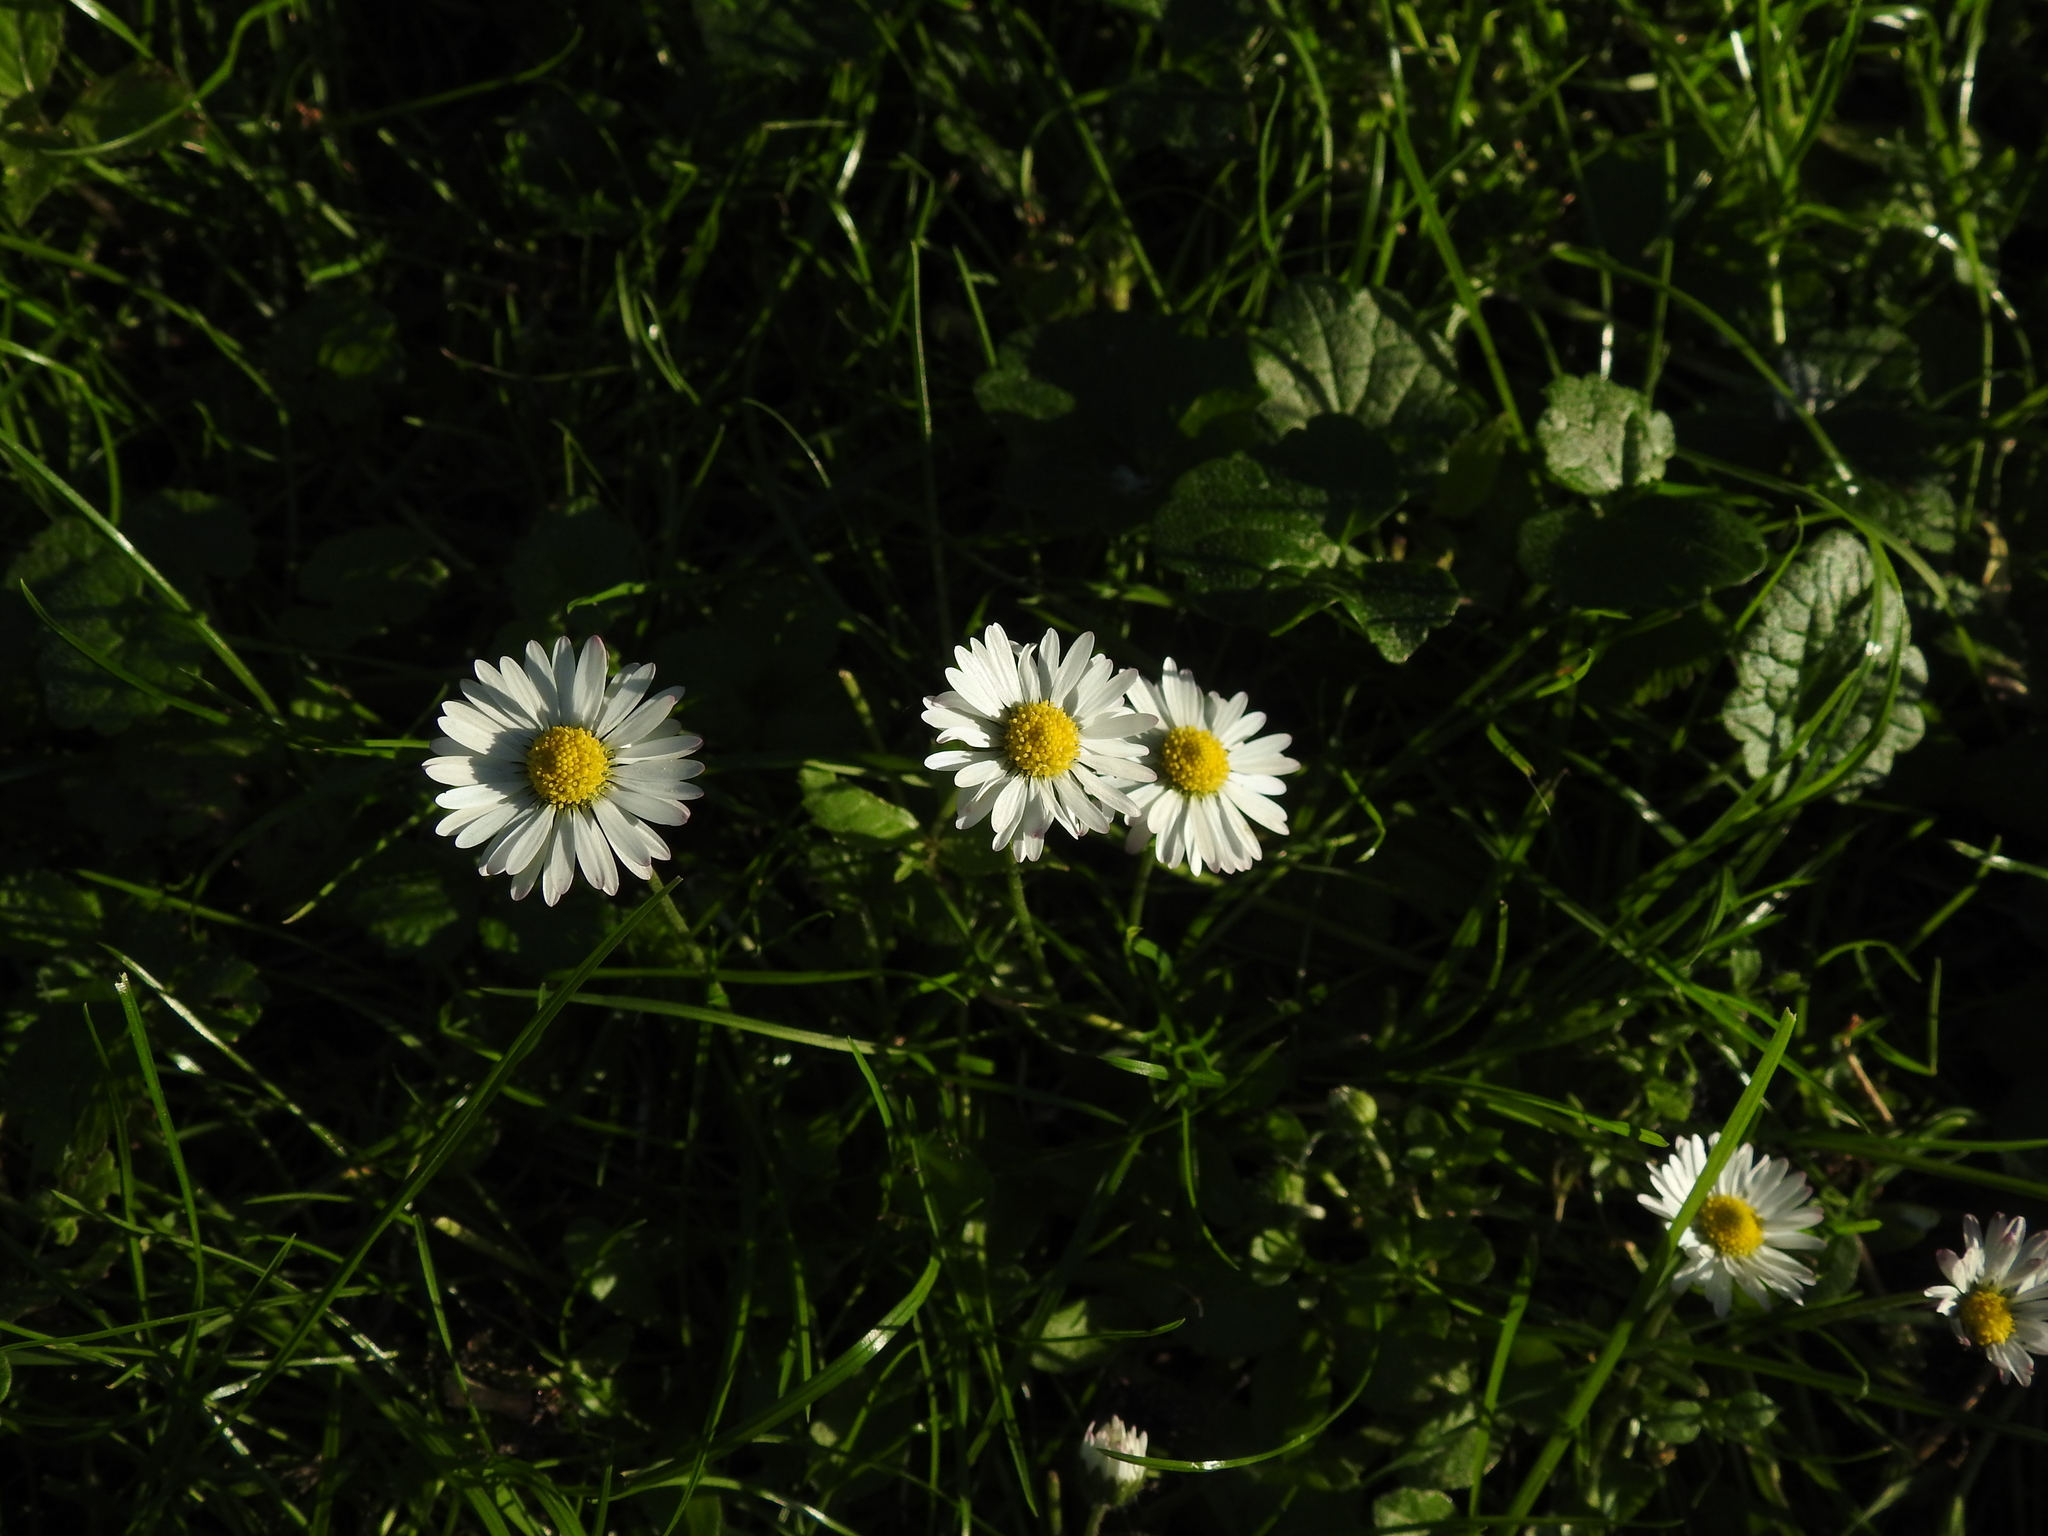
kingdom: Plantae
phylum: Tracheophyta
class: Magnoliopsida
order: Asterales
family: Asteraceae
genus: Bellis
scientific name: Bellis perennis
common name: Lawndaisy
